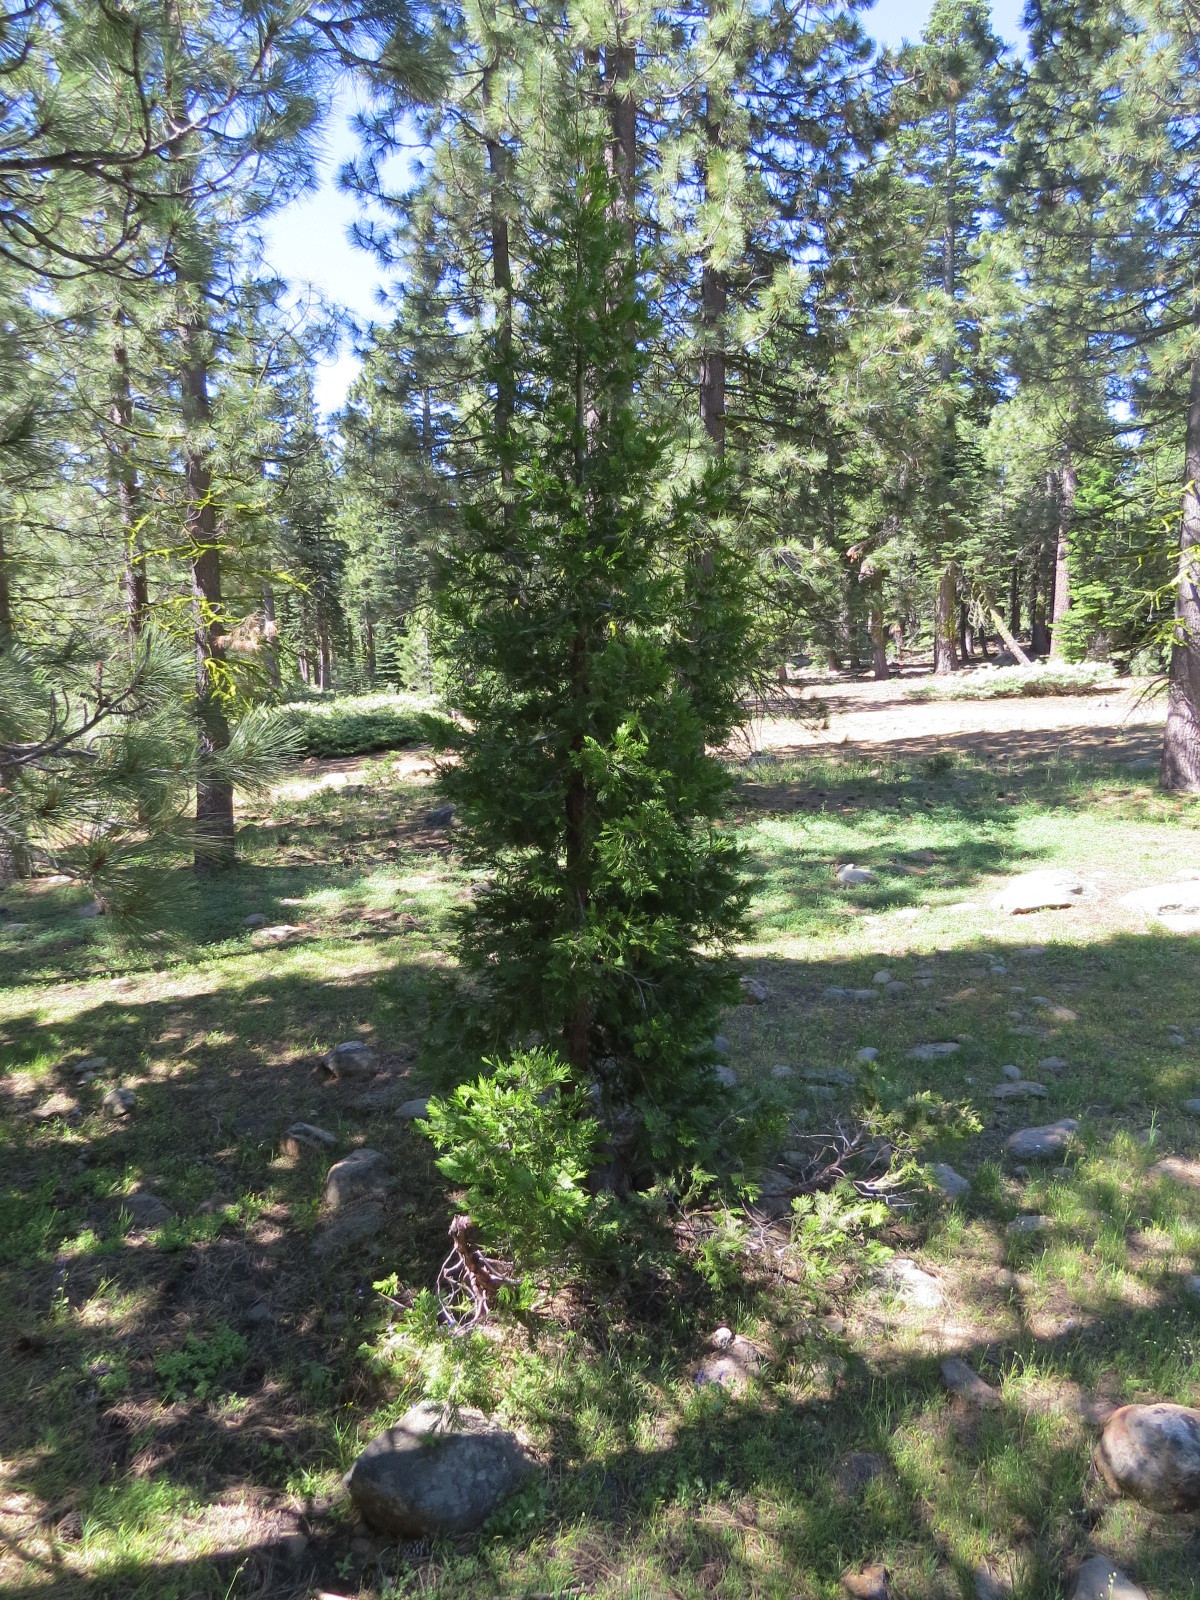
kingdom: Plantae
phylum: Tracheophyta
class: Pinopsida
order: Pinales
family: Cupressaceae
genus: Calocedrus
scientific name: Calocedrus decurrens
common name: Californian incense-cedar
